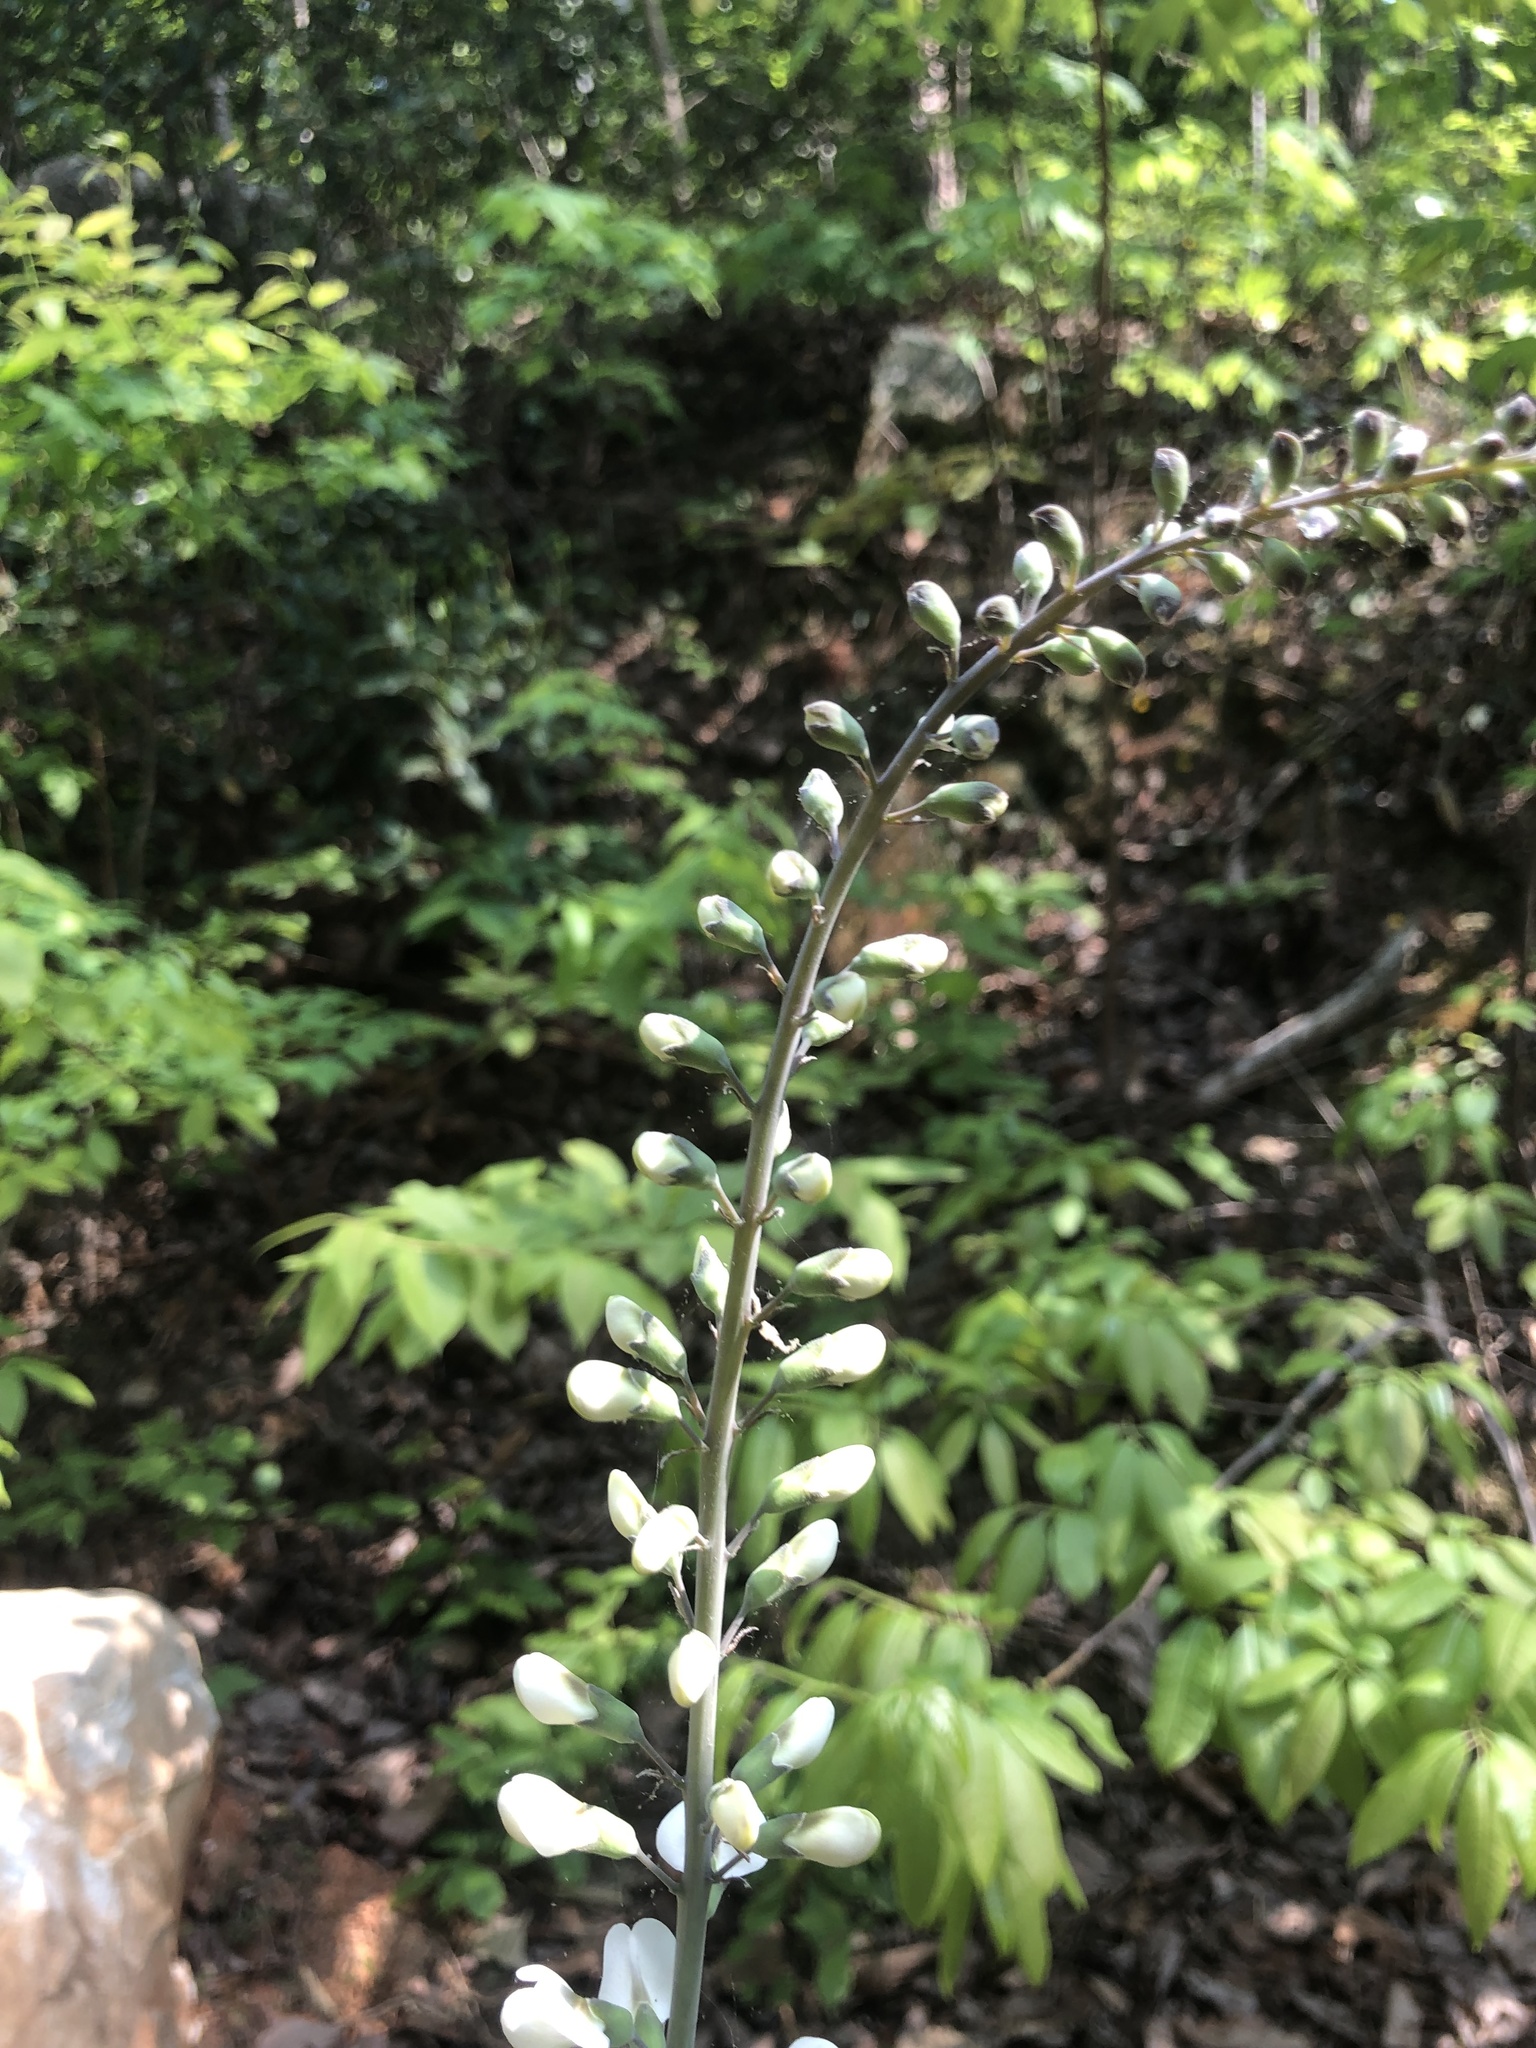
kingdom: Plantae
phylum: Tracheophyta
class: Magnoliopsida
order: Fabales
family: Fabaceae
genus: Baptisia
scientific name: Baptisia albescens
